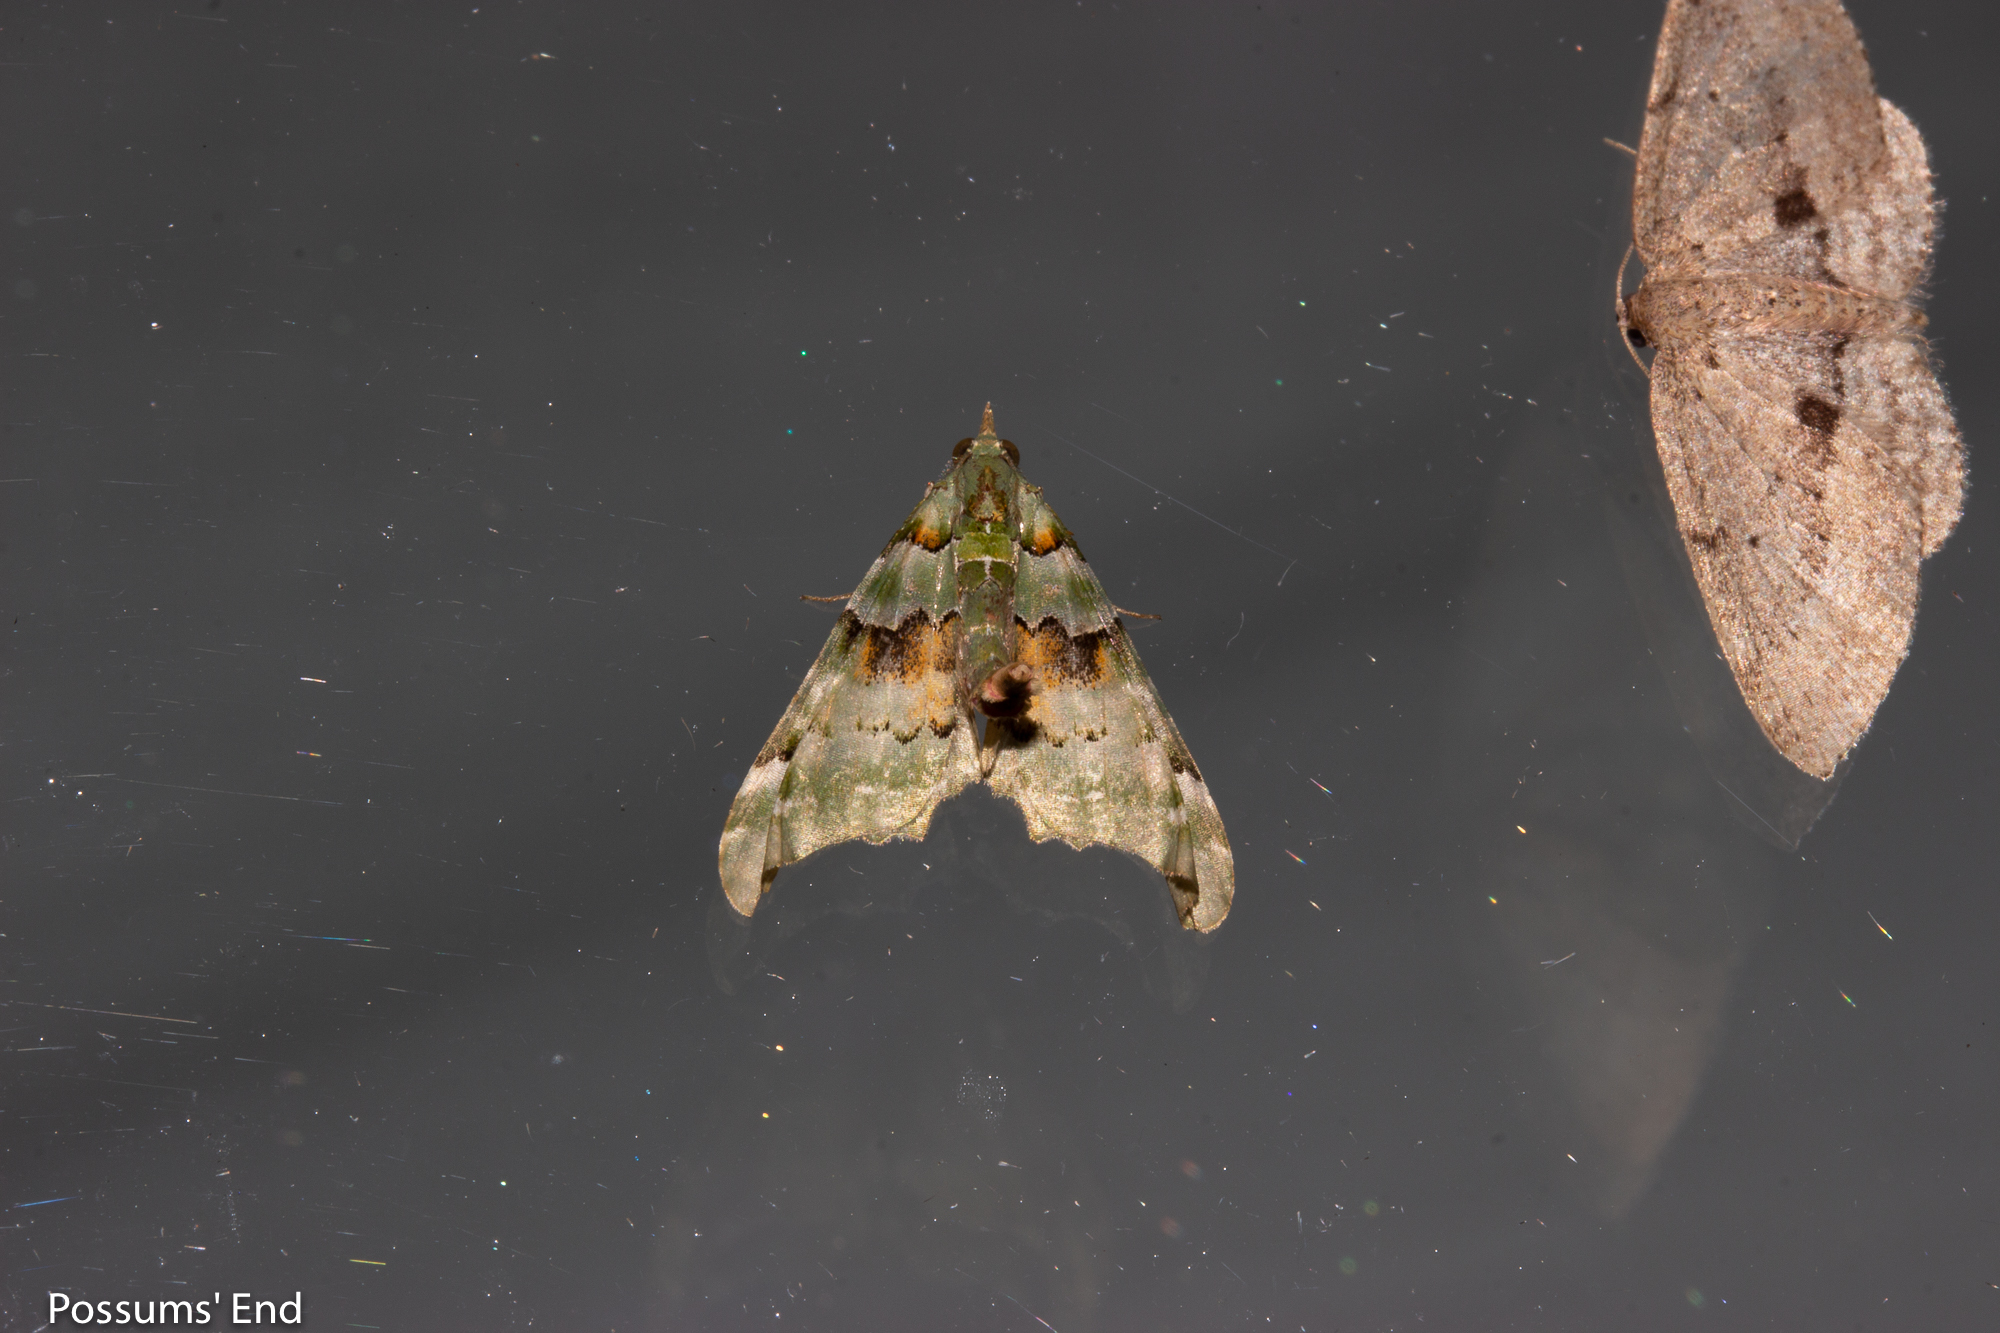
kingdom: Animalia
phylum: Arthropoda
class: Insecta
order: Lepidoptera
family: Geometridae
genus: Elvia
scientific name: Elvia glaucata
